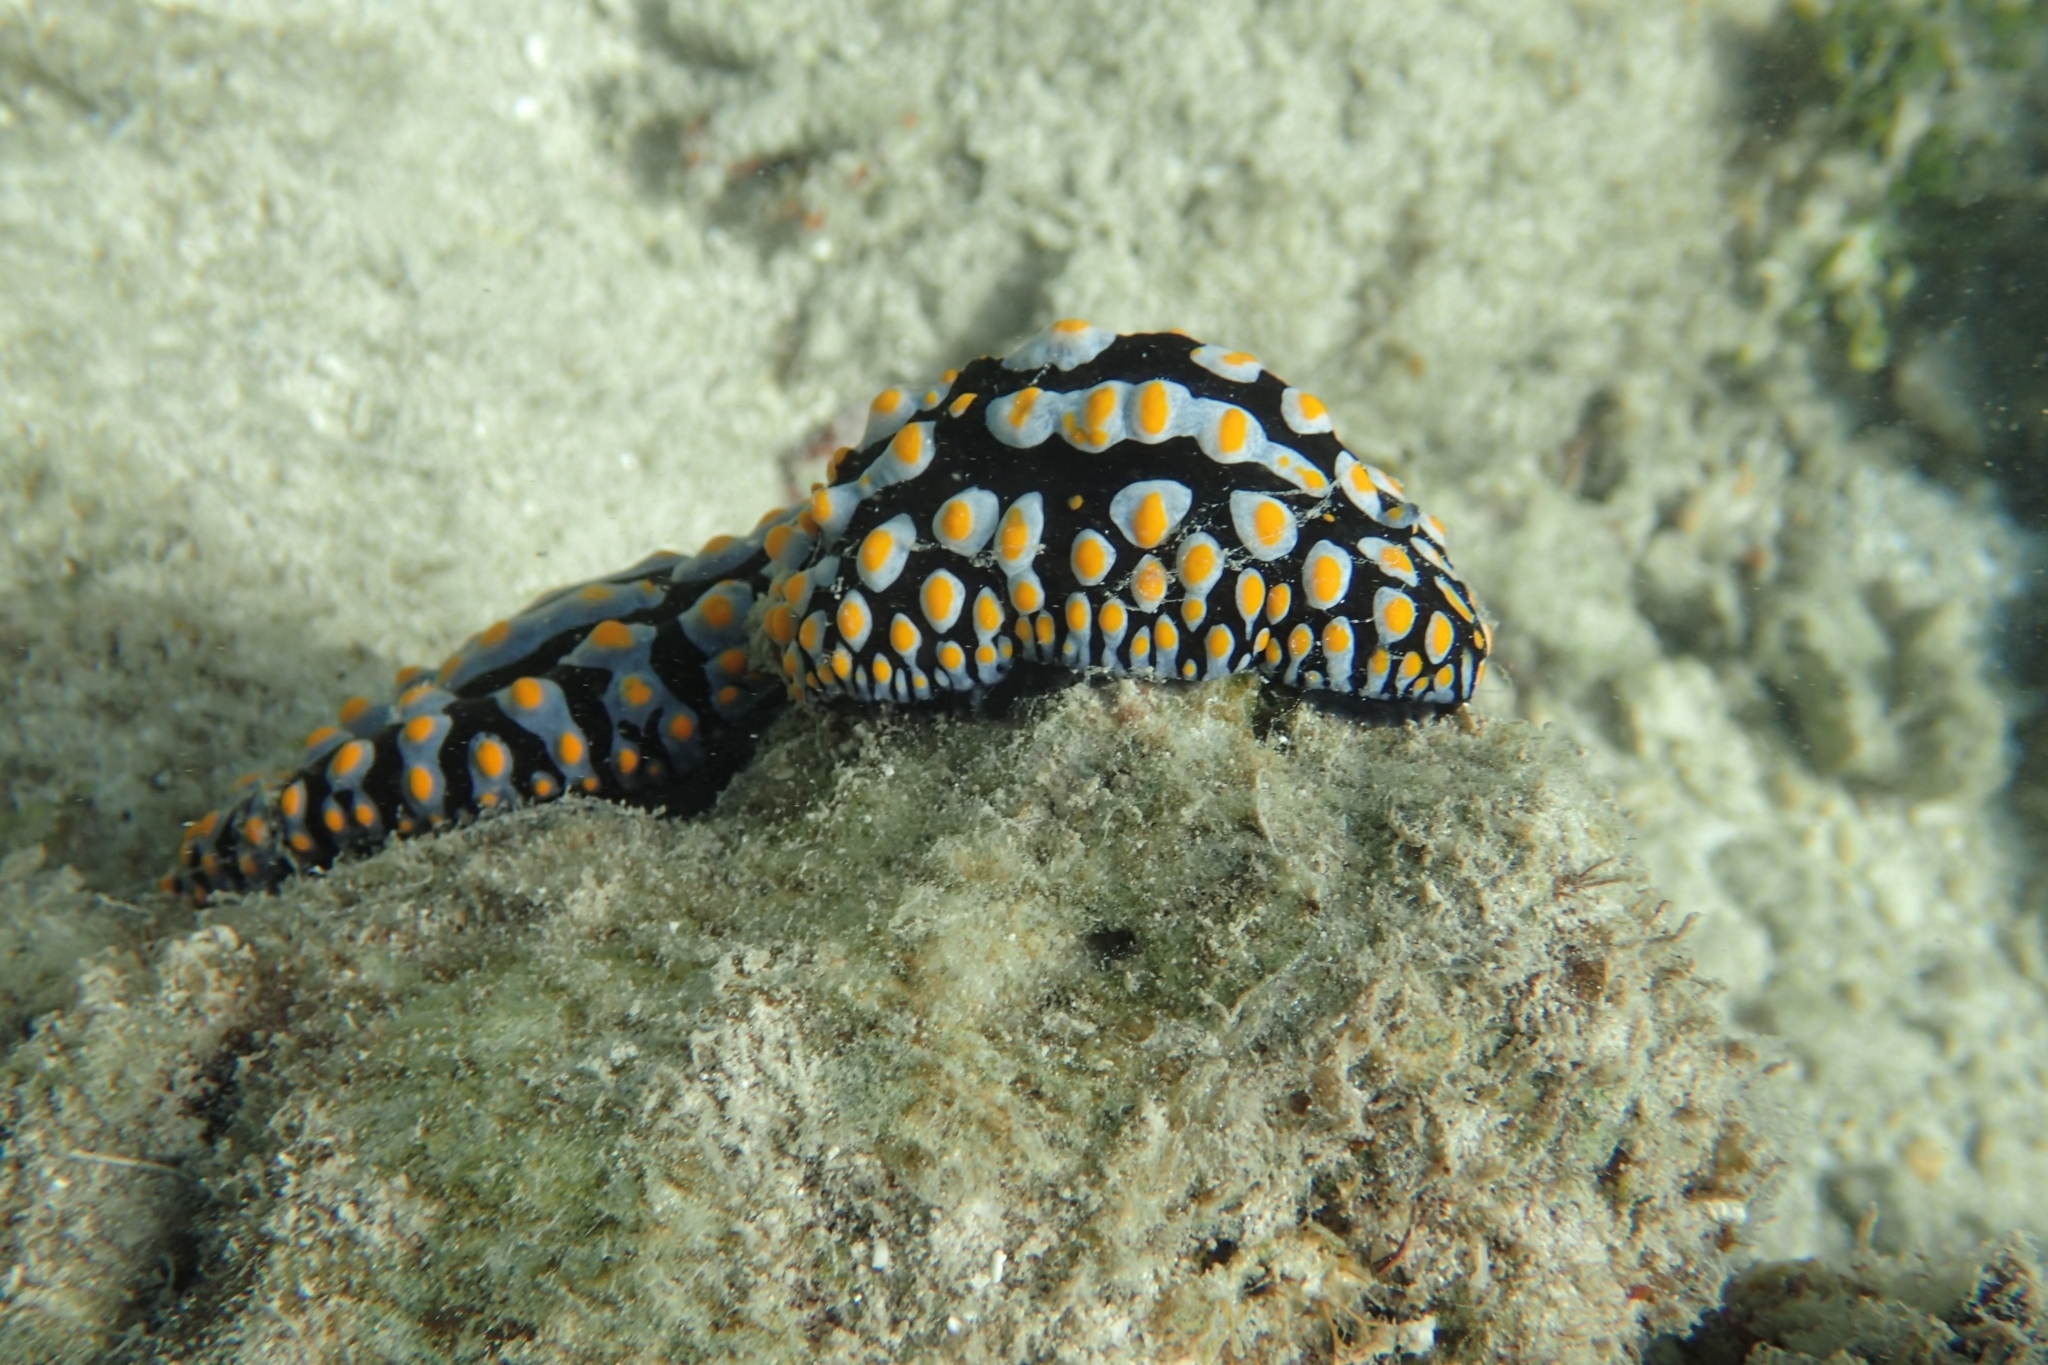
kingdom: Animalia
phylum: Mollusca
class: Gastropoda
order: Nudibranchia
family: Phyllidiidae
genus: Phyllidia
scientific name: Phyllidia varicosa
